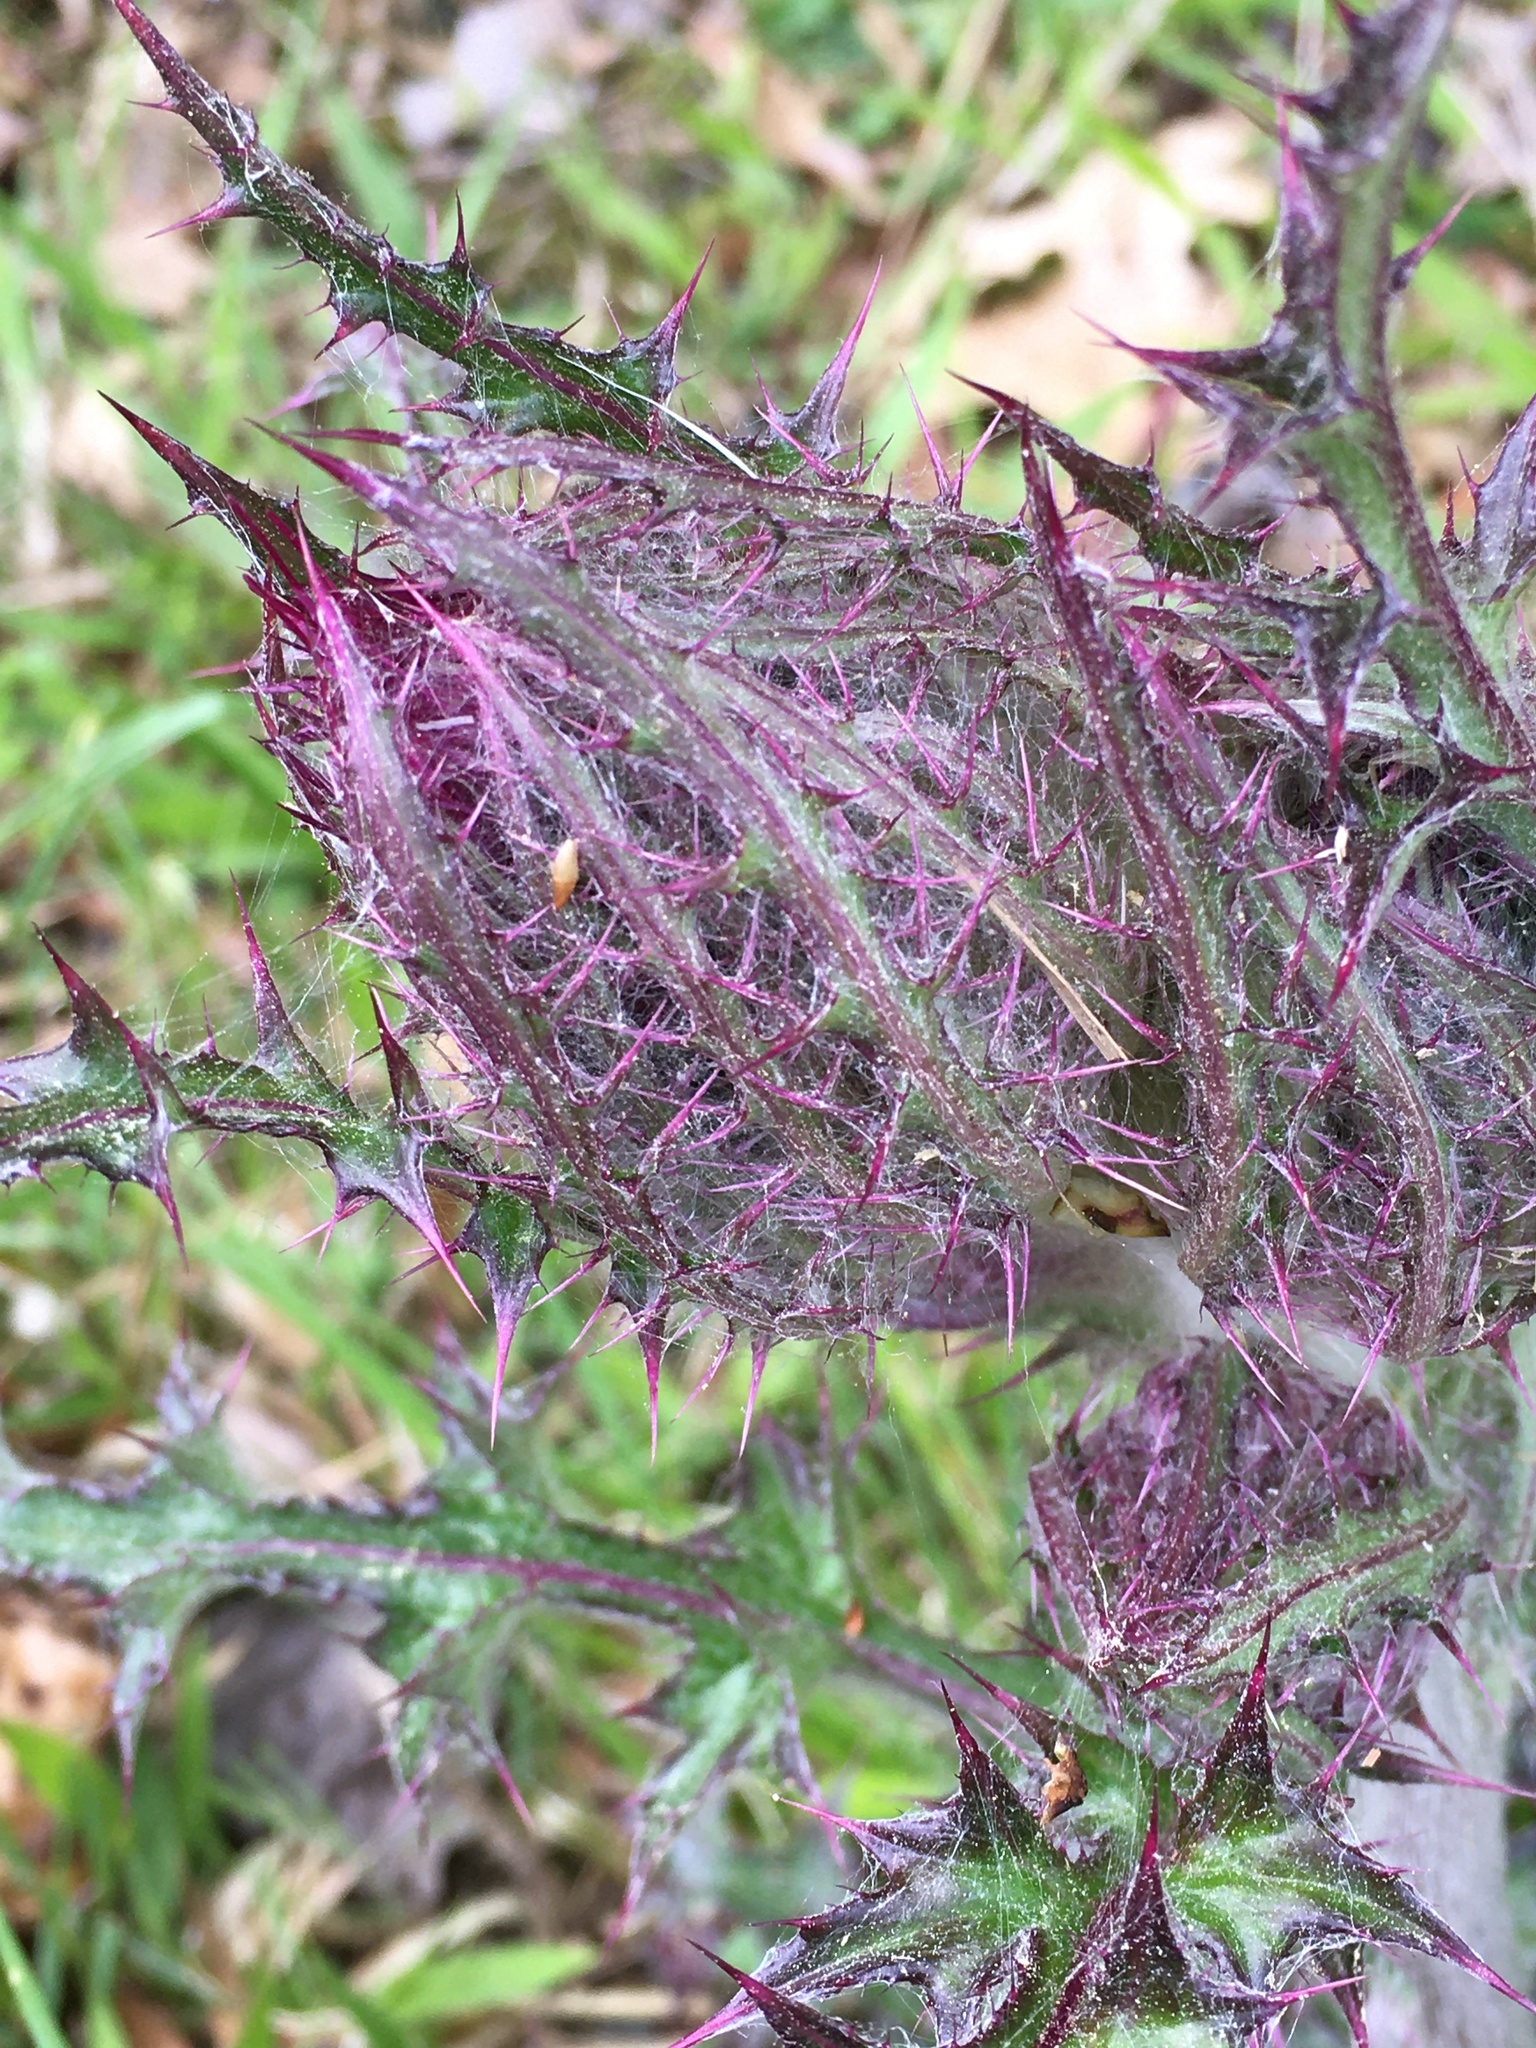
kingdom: Plantae
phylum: Tracheophyta
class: Magnoliopsida
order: Asterales
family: Asteraceae
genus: Cirsium
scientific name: Cirsium horridulum
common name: Bristly thistle
